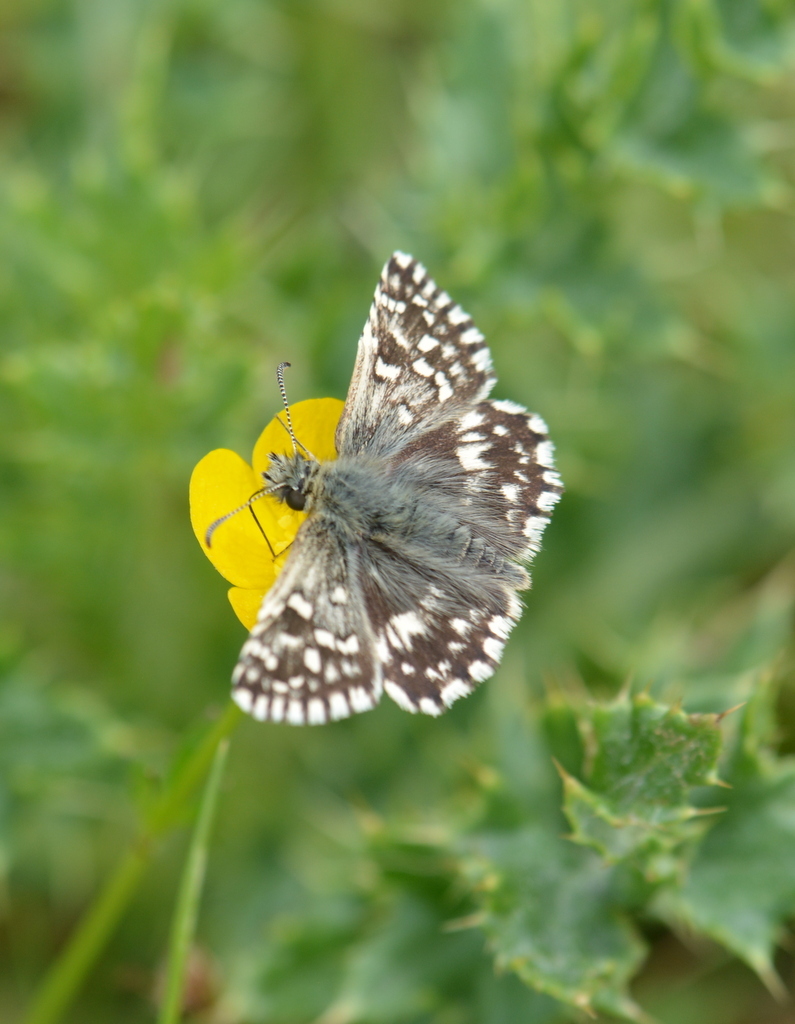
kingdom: Animalia
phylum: Arthropoda
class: Insecta
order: Lepidoptera
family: Hesperiidae
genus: Pyrgus
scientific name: Pyrgus malvae
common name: Grizzled skipper
